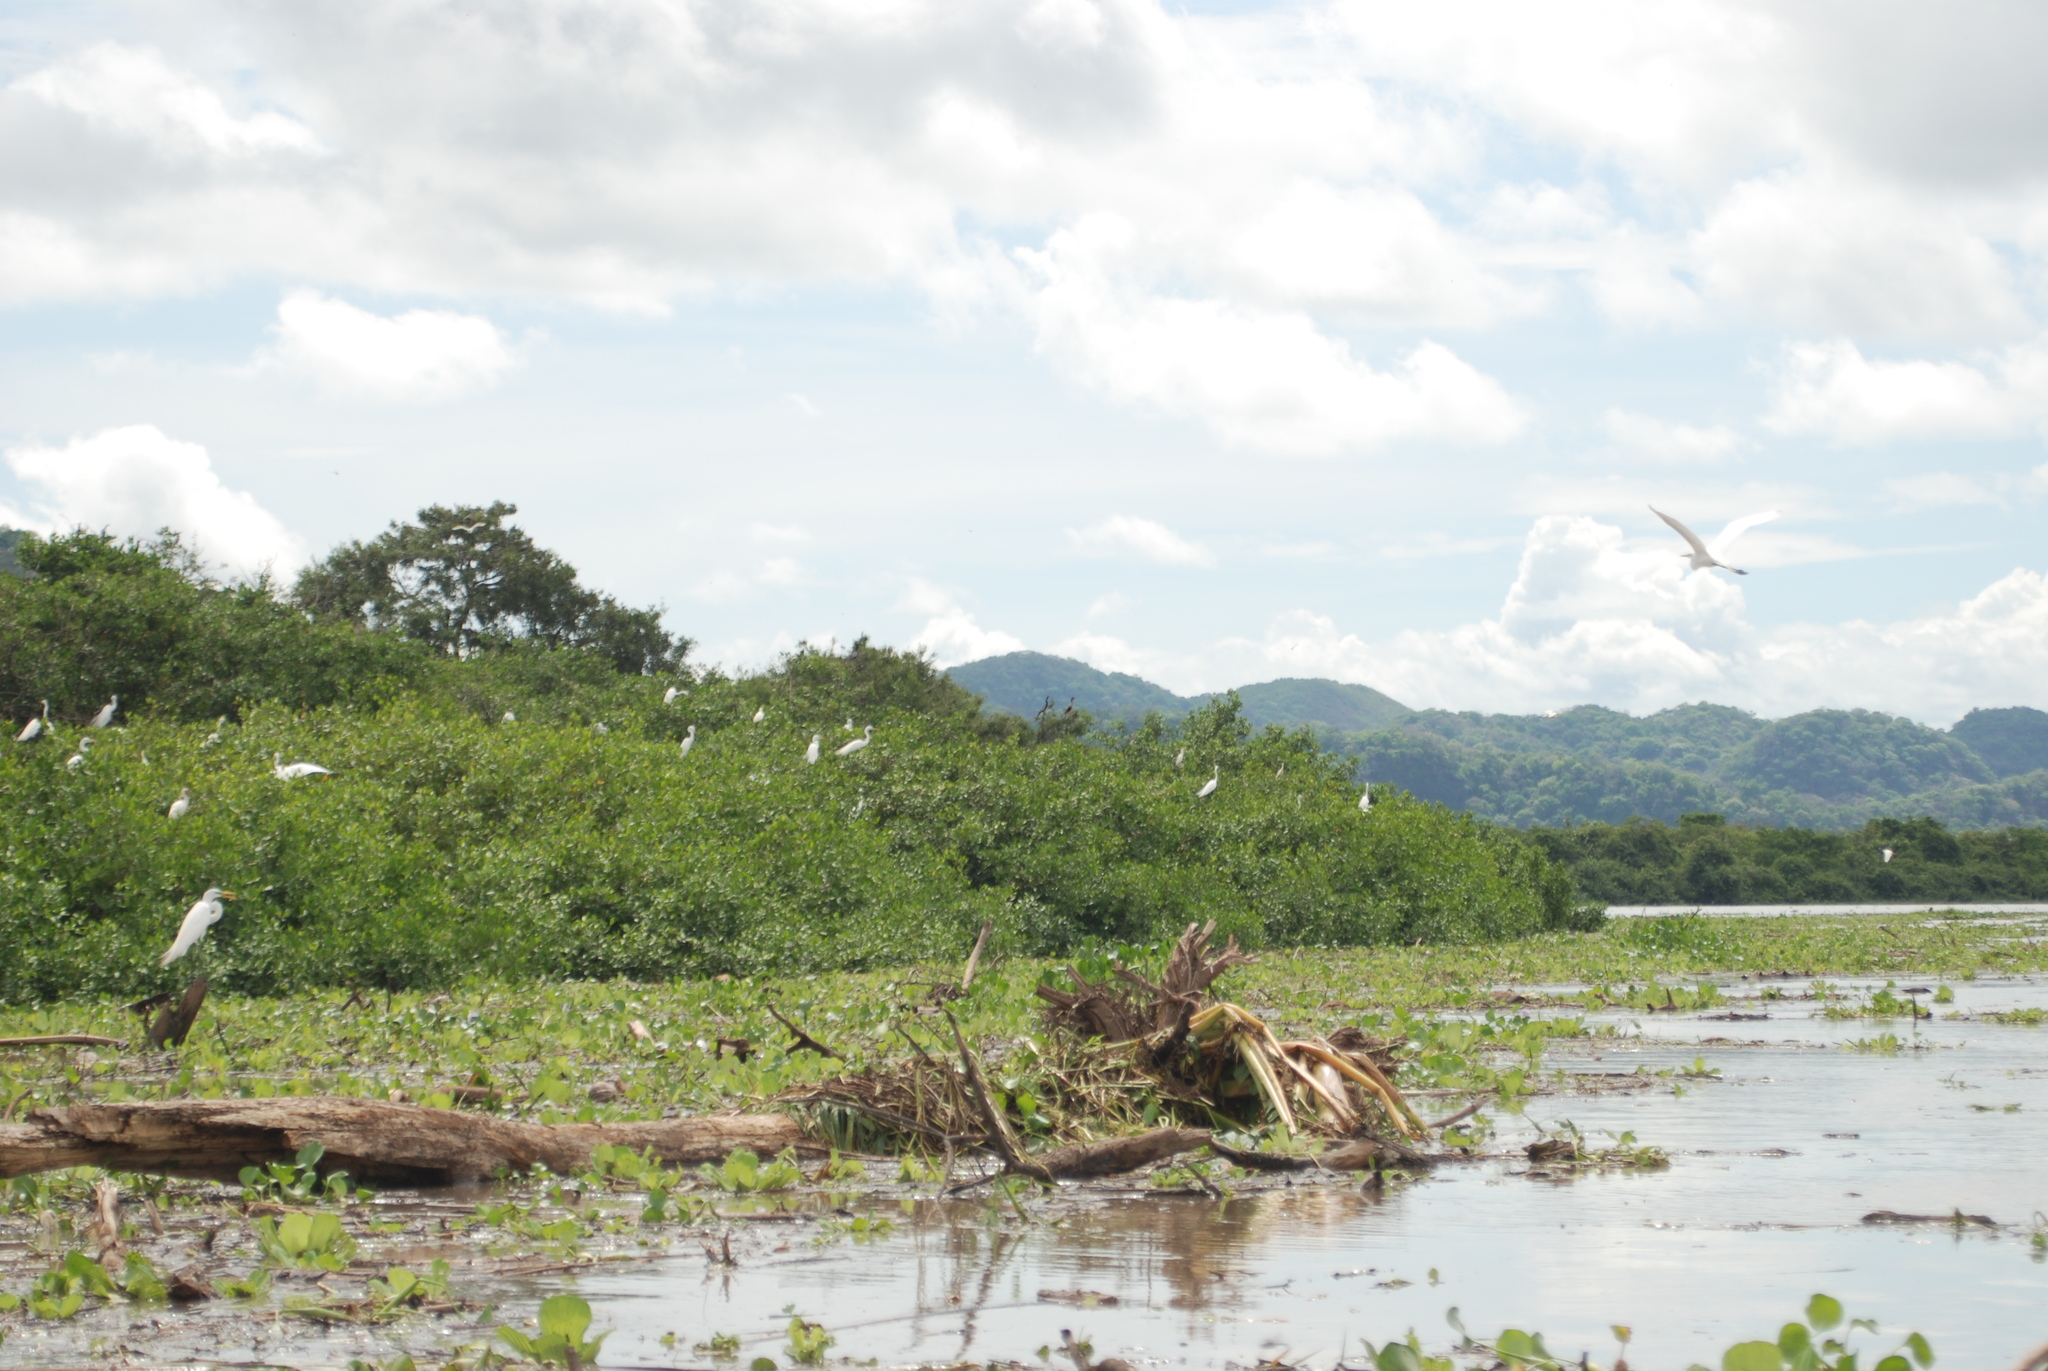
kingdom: Animalia
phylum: Chordata
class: Aves
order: Pelecaniformes
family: Ardeidae
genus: Ardea
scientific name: Ardea alba
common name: Great egret
